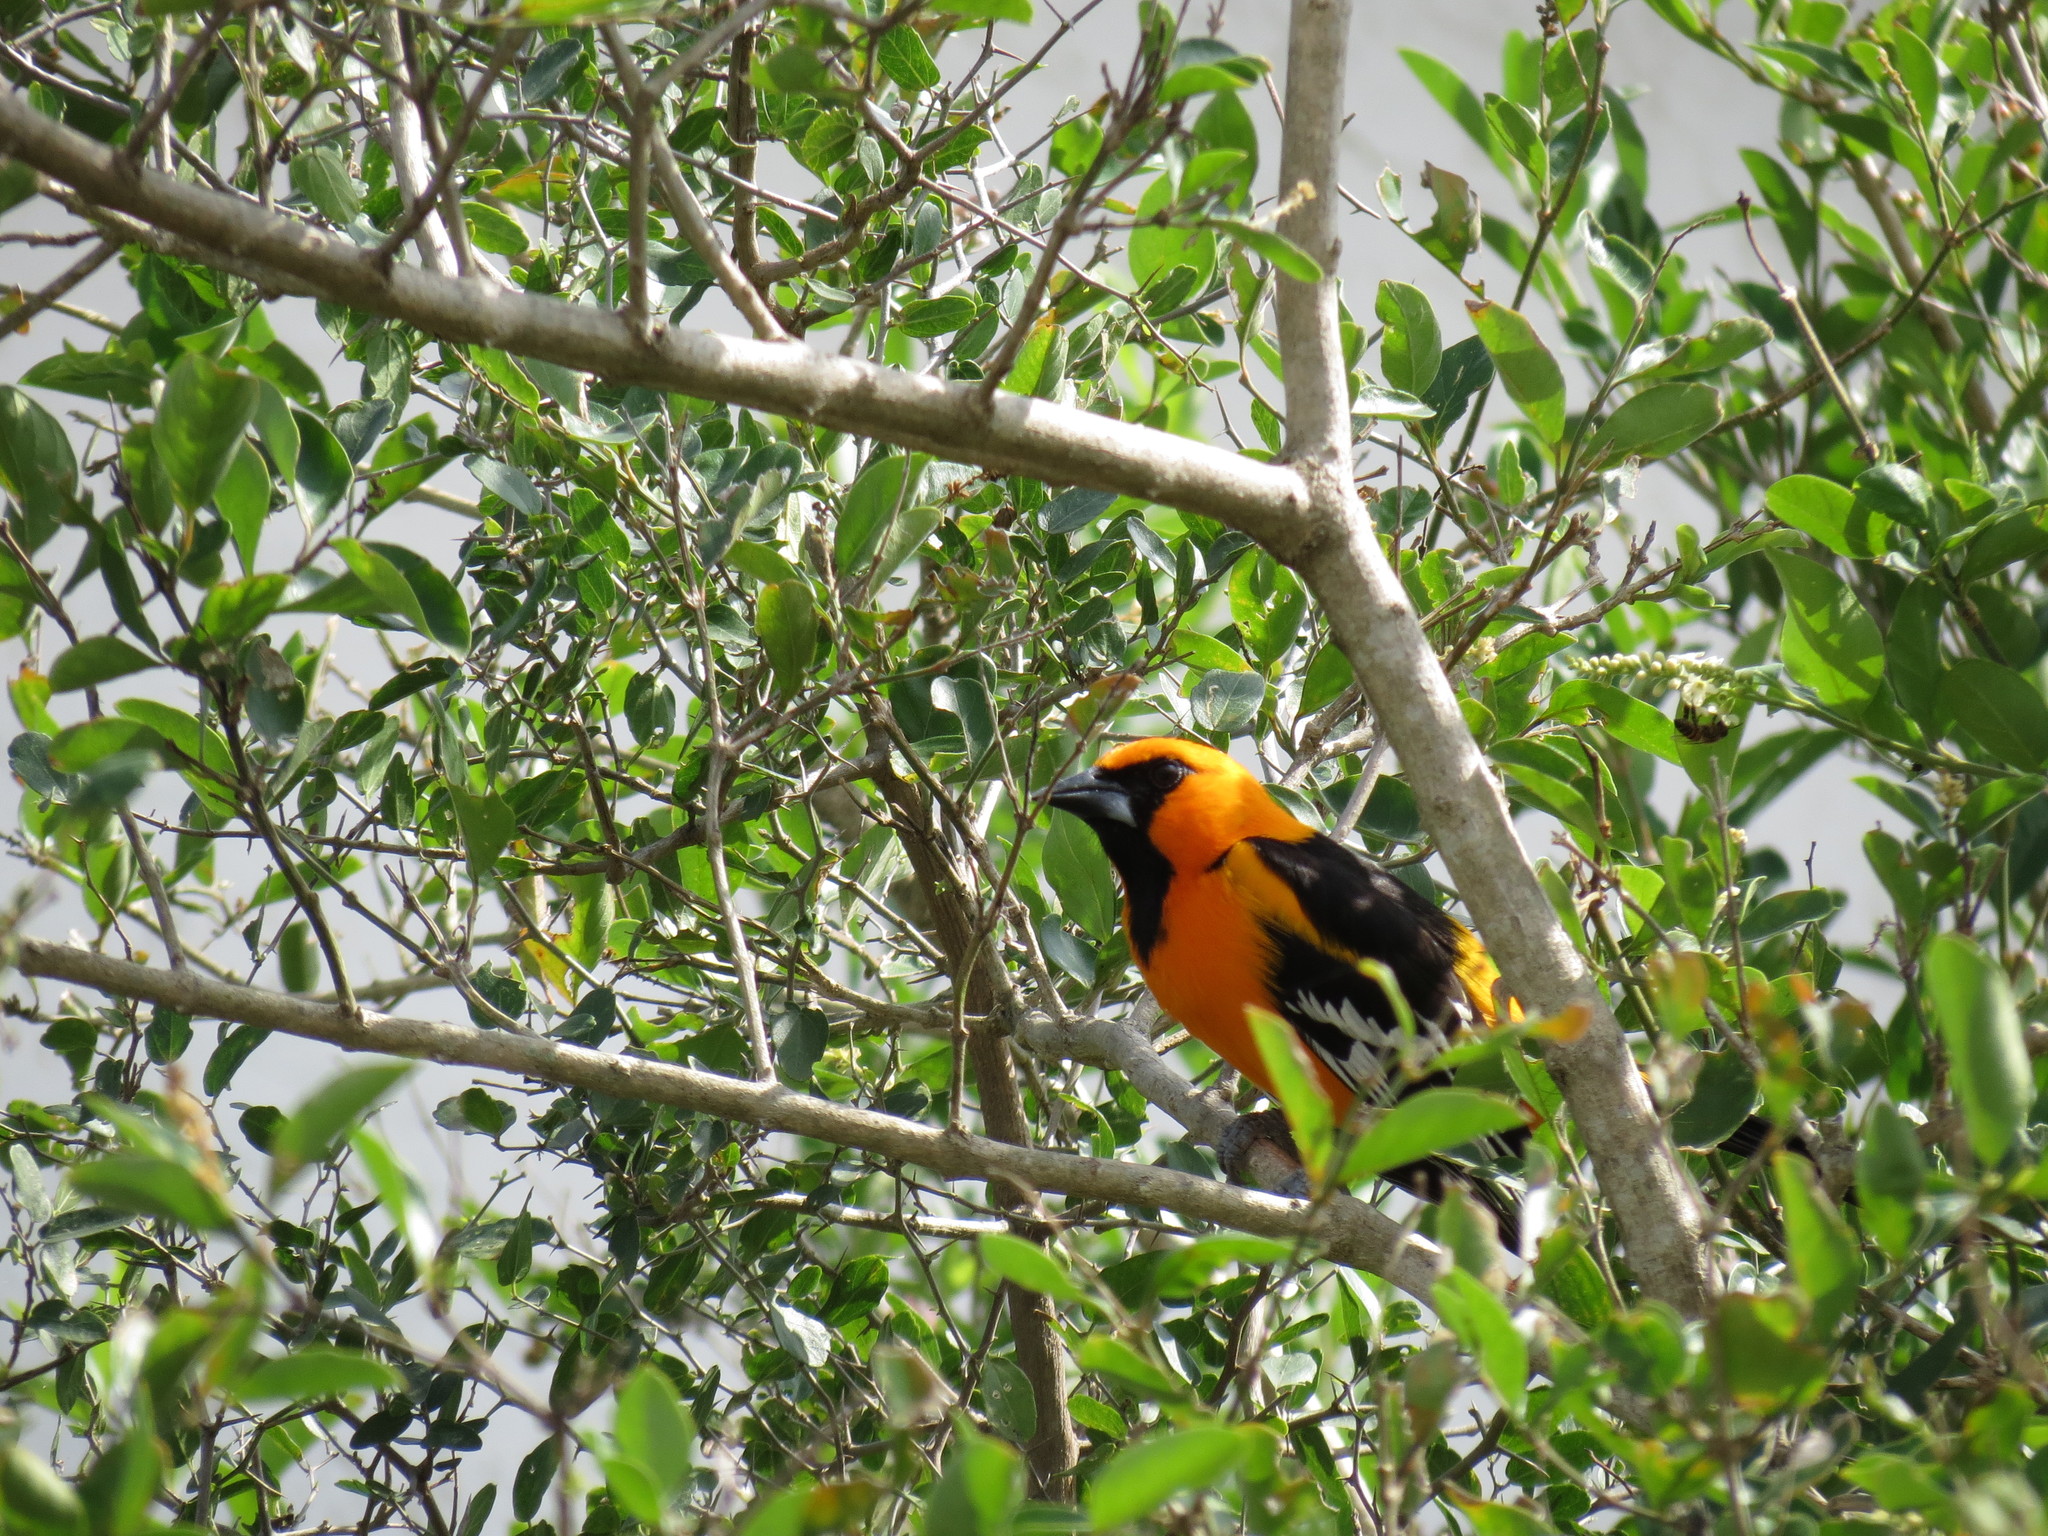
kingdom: Animalia
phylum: Chordata
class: Aves
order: Passeriformes
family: Icteridae
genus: Icterus
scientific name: Icterus gularis
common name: Altamira oriole
